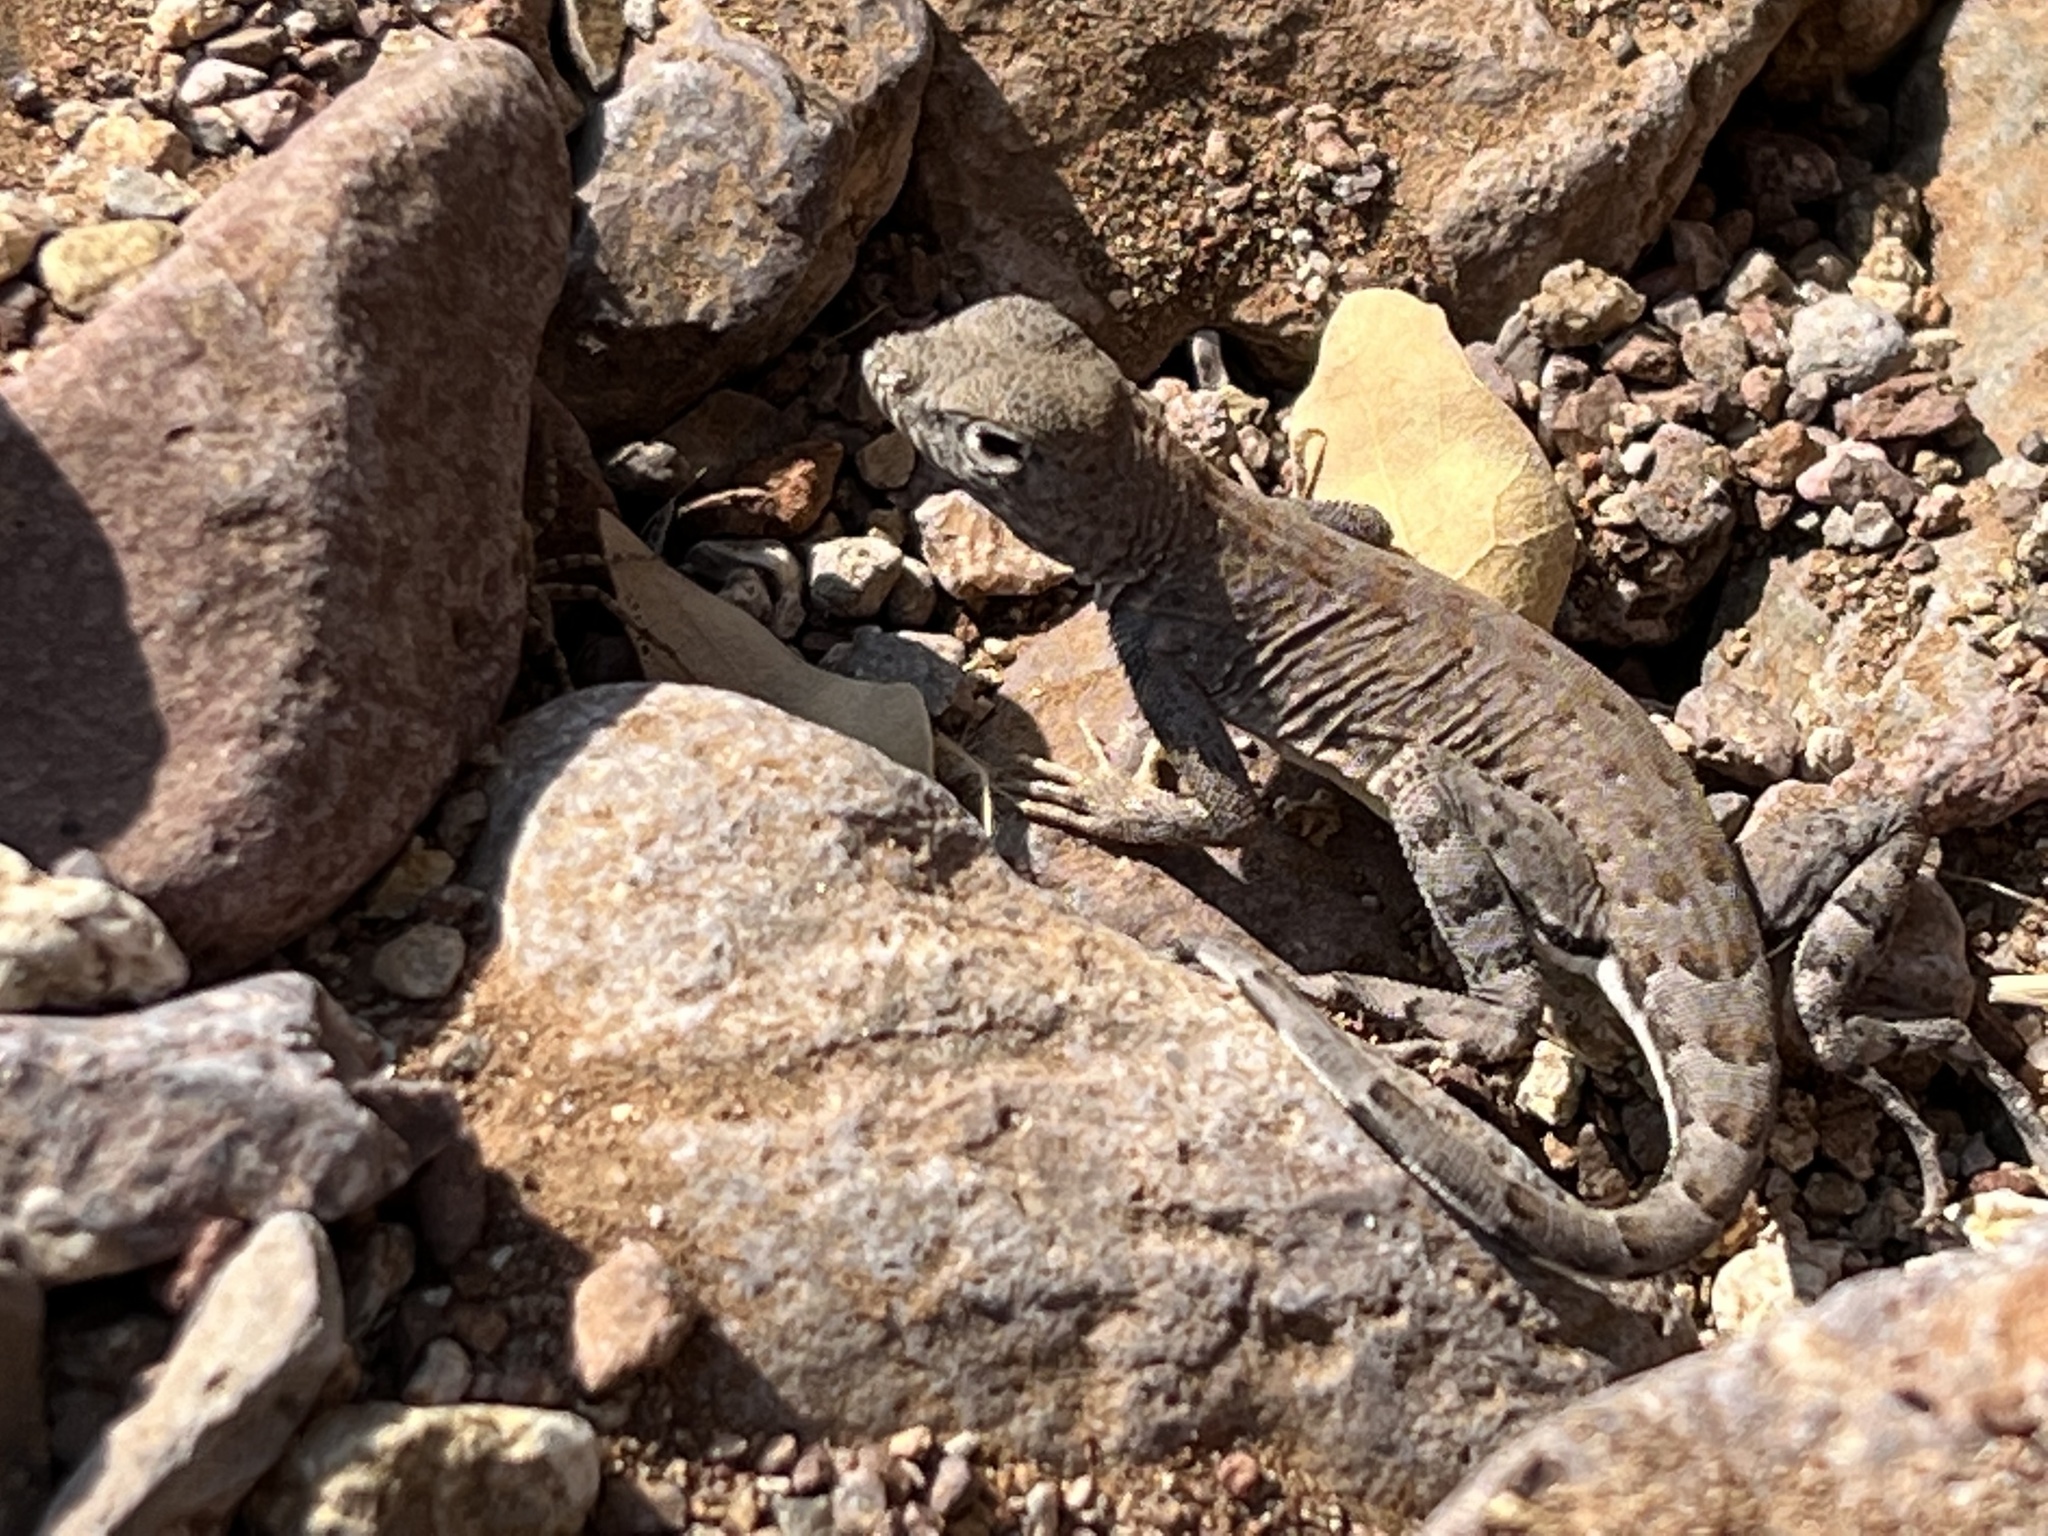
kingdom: Animalia
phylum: Chordata
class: Squamata
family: Phrynosomatidae
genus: Holbrookia
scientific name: Holbrookia maculata
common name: Lesser earless lizard
